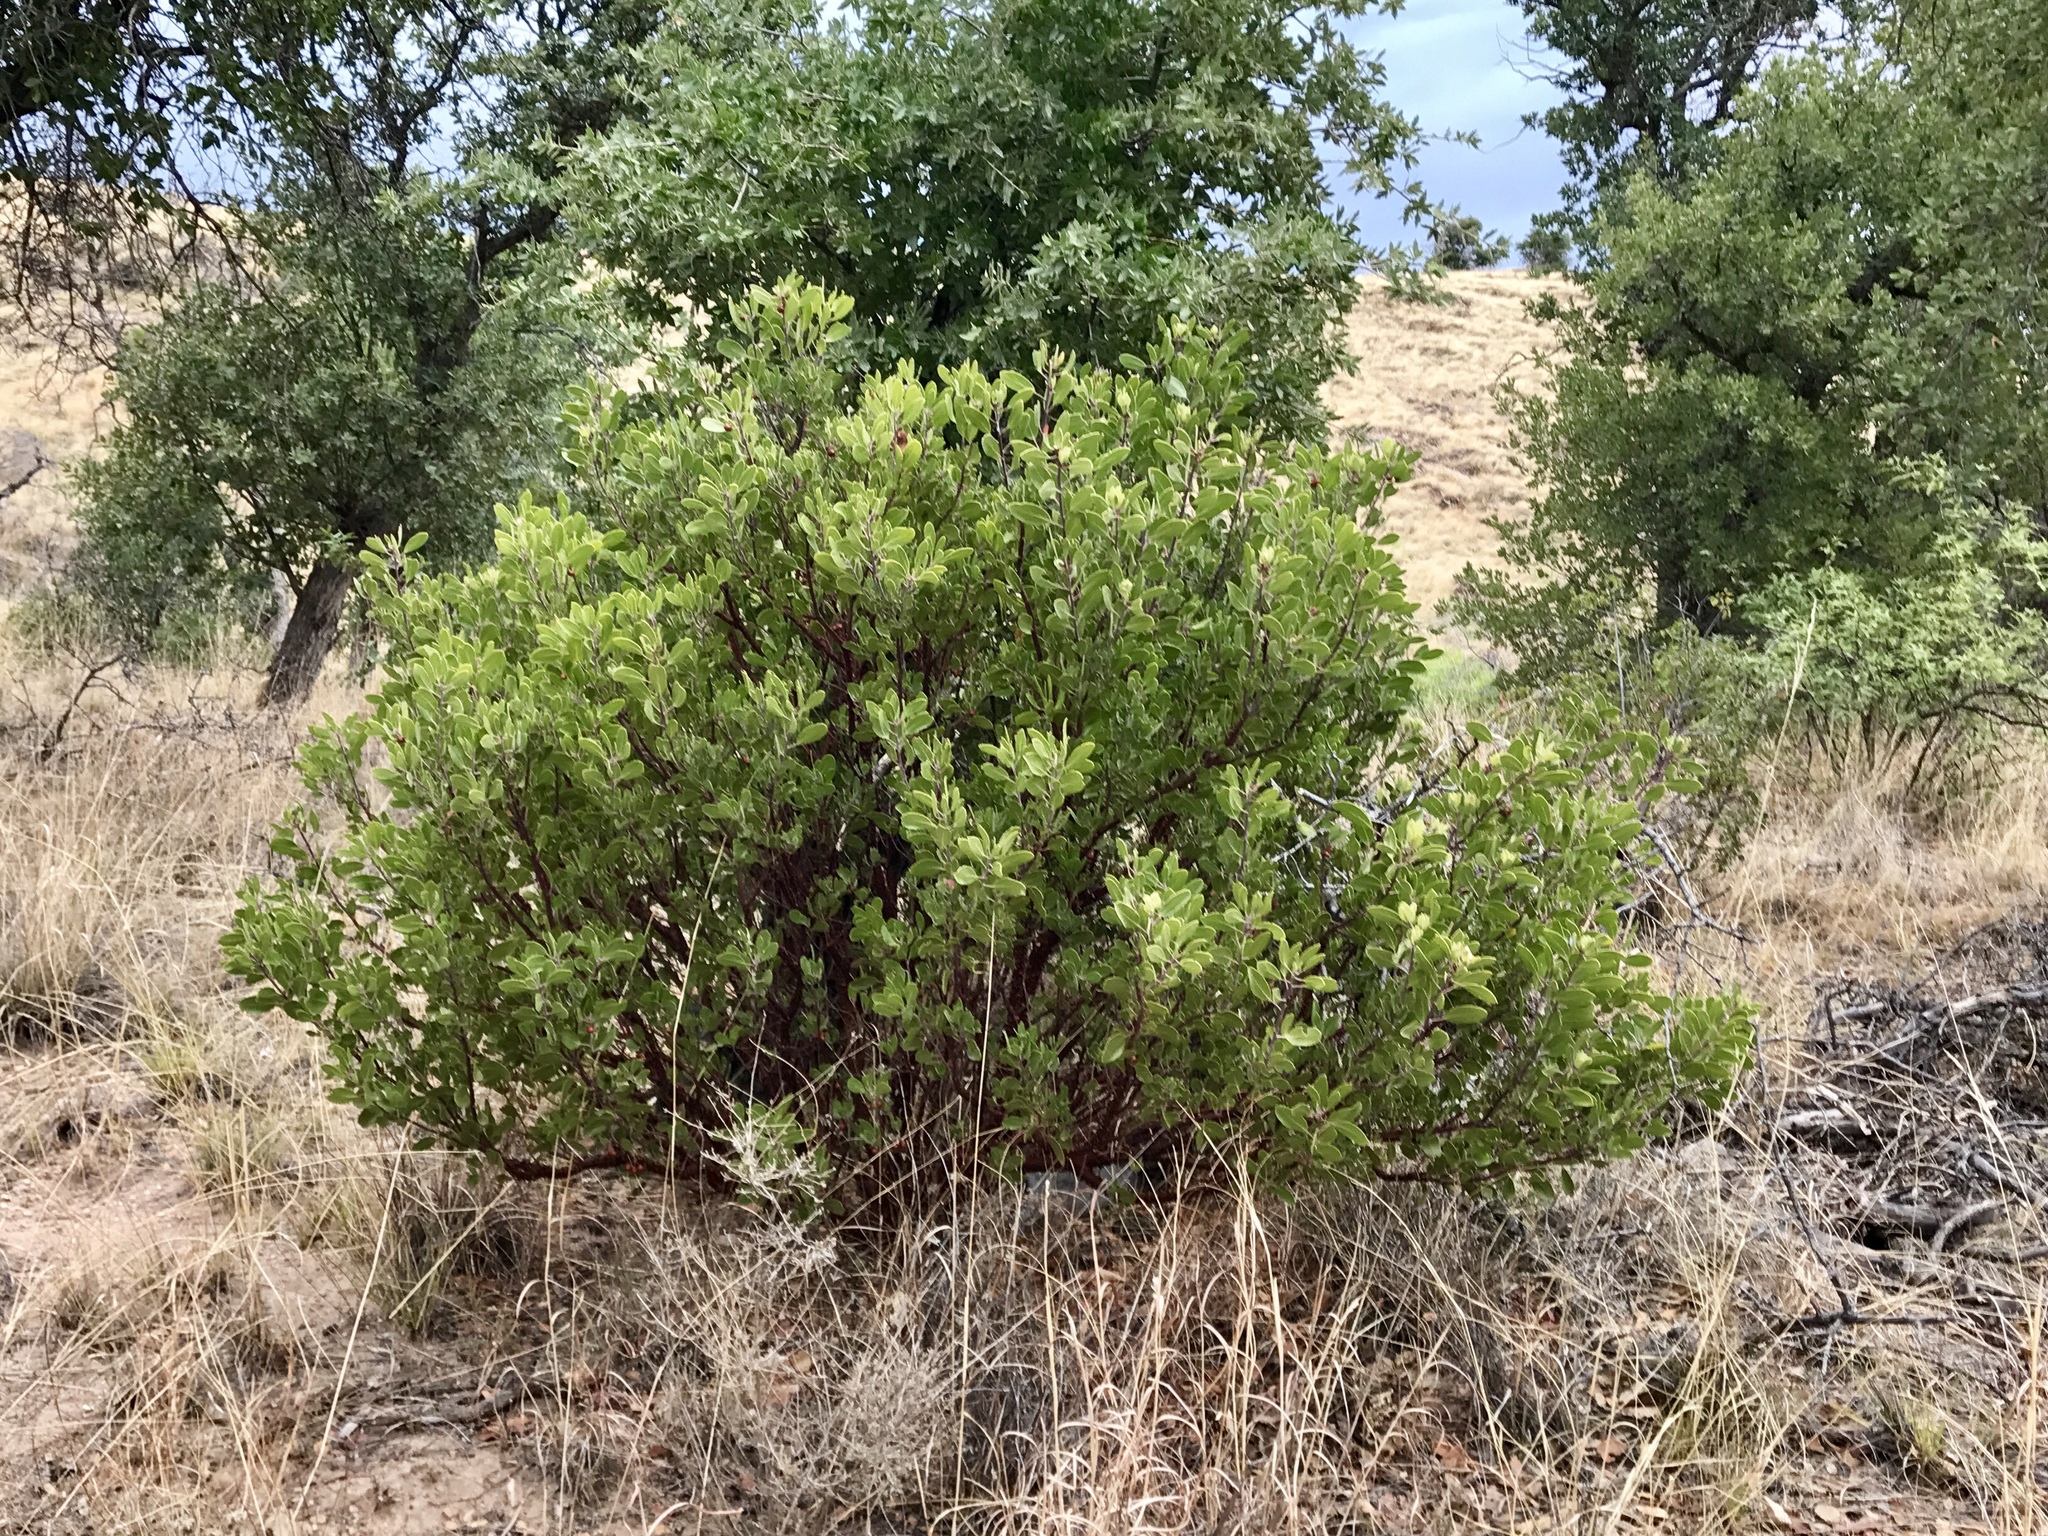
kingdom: Plantae
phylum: Tracheophyta
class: Magnoliopsida
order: Ericales
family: Ericaceae
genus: Arctostaphylos
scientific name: Arctostaphylos pungens
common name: Mexican manzanita
